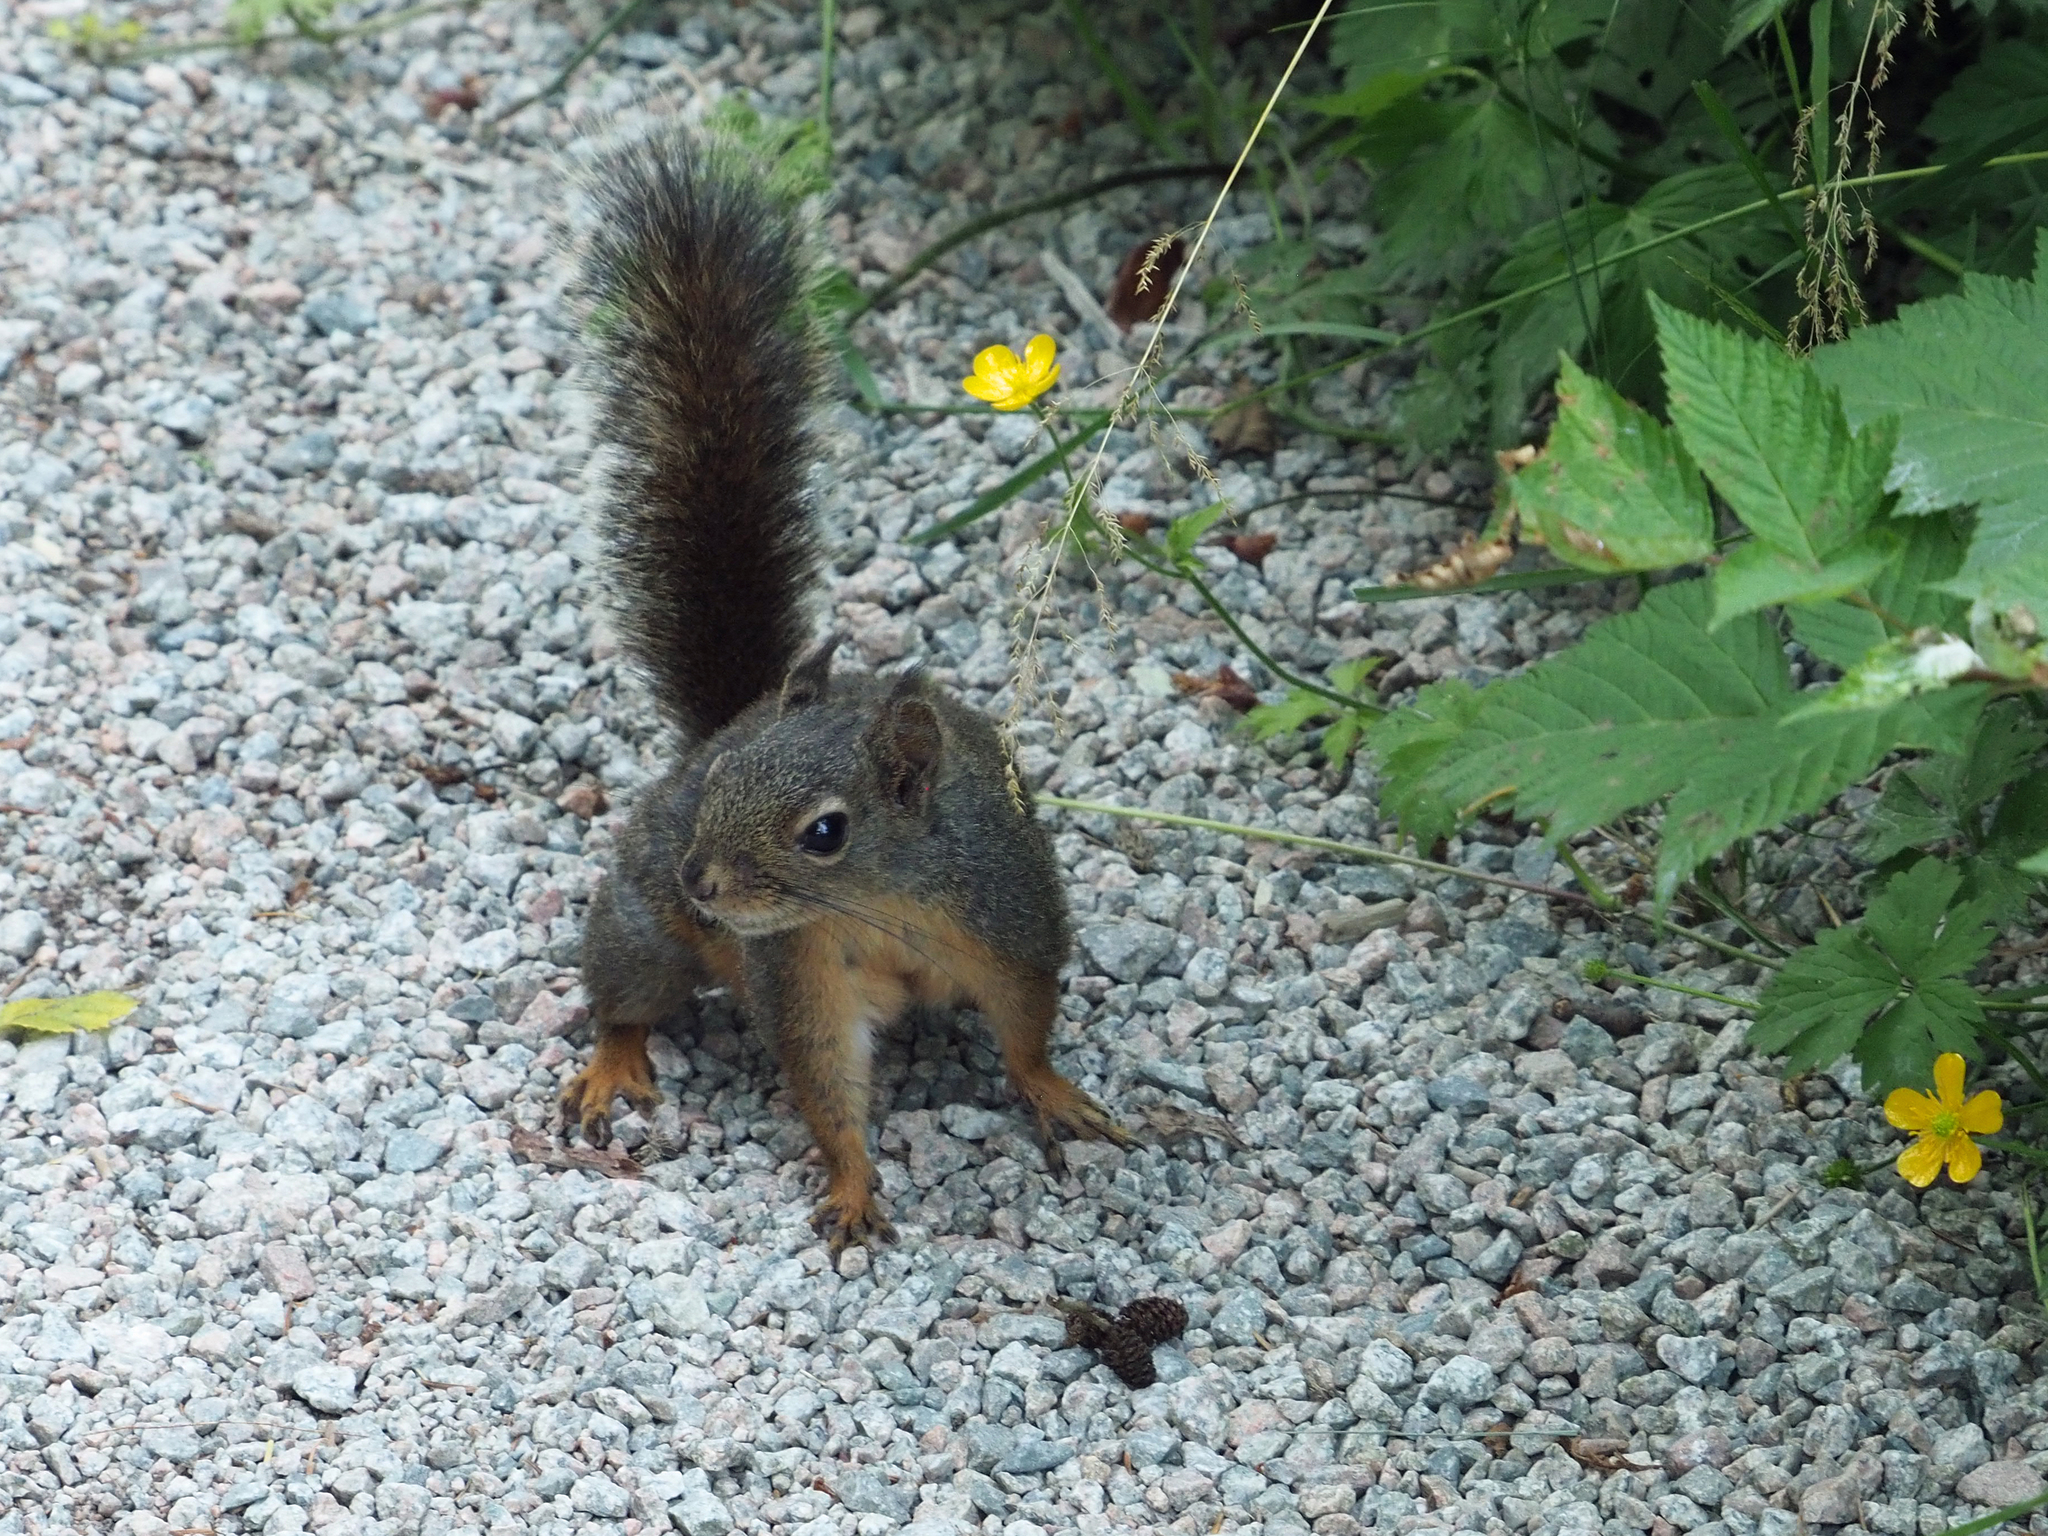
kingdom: Animalia
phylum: Chordata
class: Mammalia
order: Rodentia
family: Sciuridae
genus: Tamiasciurus
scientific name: Tamiasciurus douglasii
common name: Douglas's squirrel
